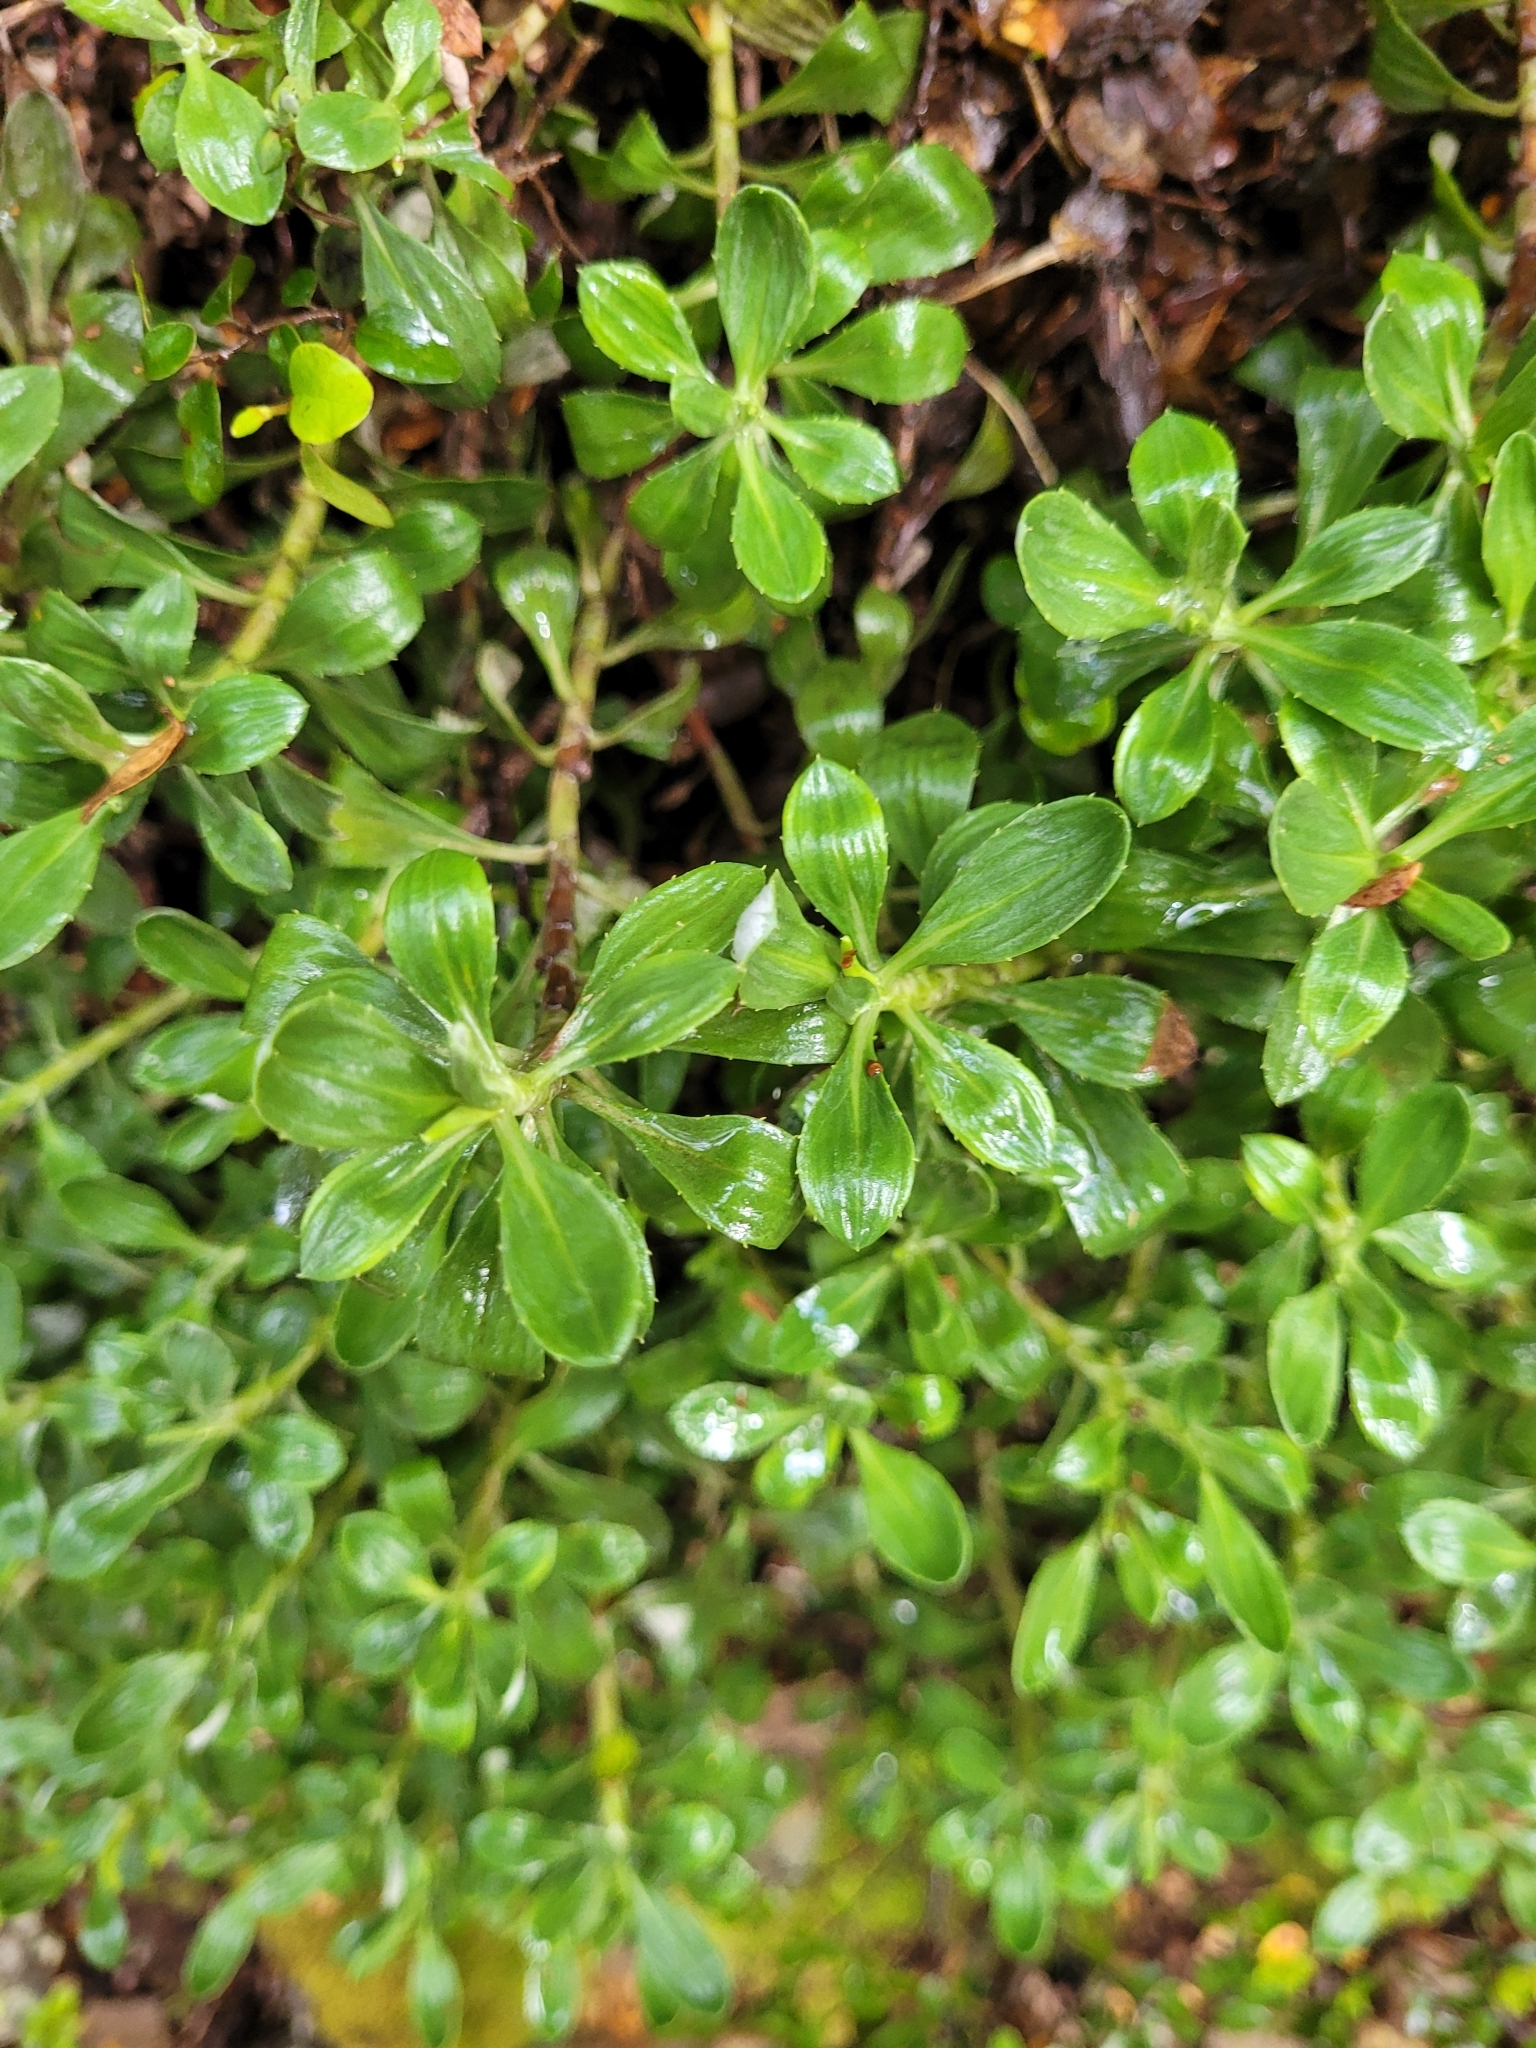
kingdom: Plantae
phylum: Tracheophyta
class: Magnoliopsida
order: Asterales
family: Asteraceae
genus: Celmisia
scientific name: Celmisia durietzii
